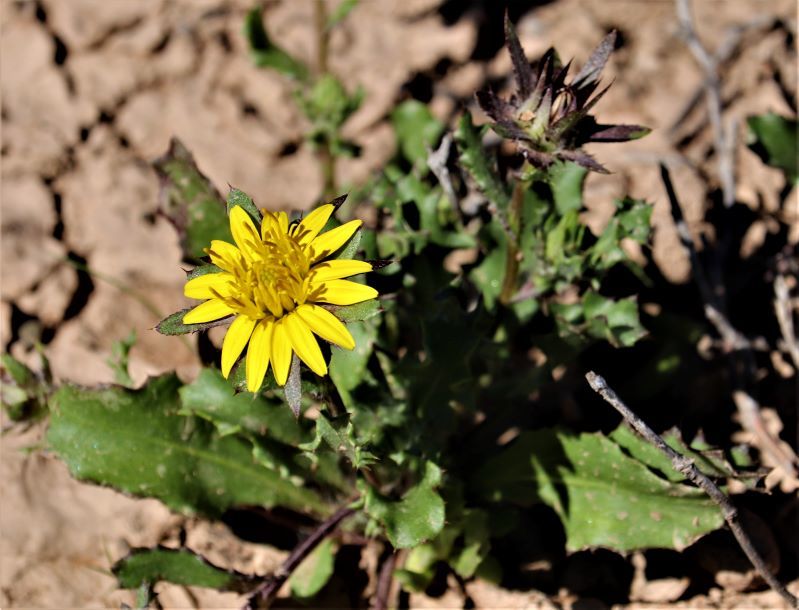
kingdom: Plantae
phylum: Tracheophyta
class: Magnoliopsida
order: Asterales
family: Asteraceae
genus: Cuspidia
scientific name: Cuspidia cernua
